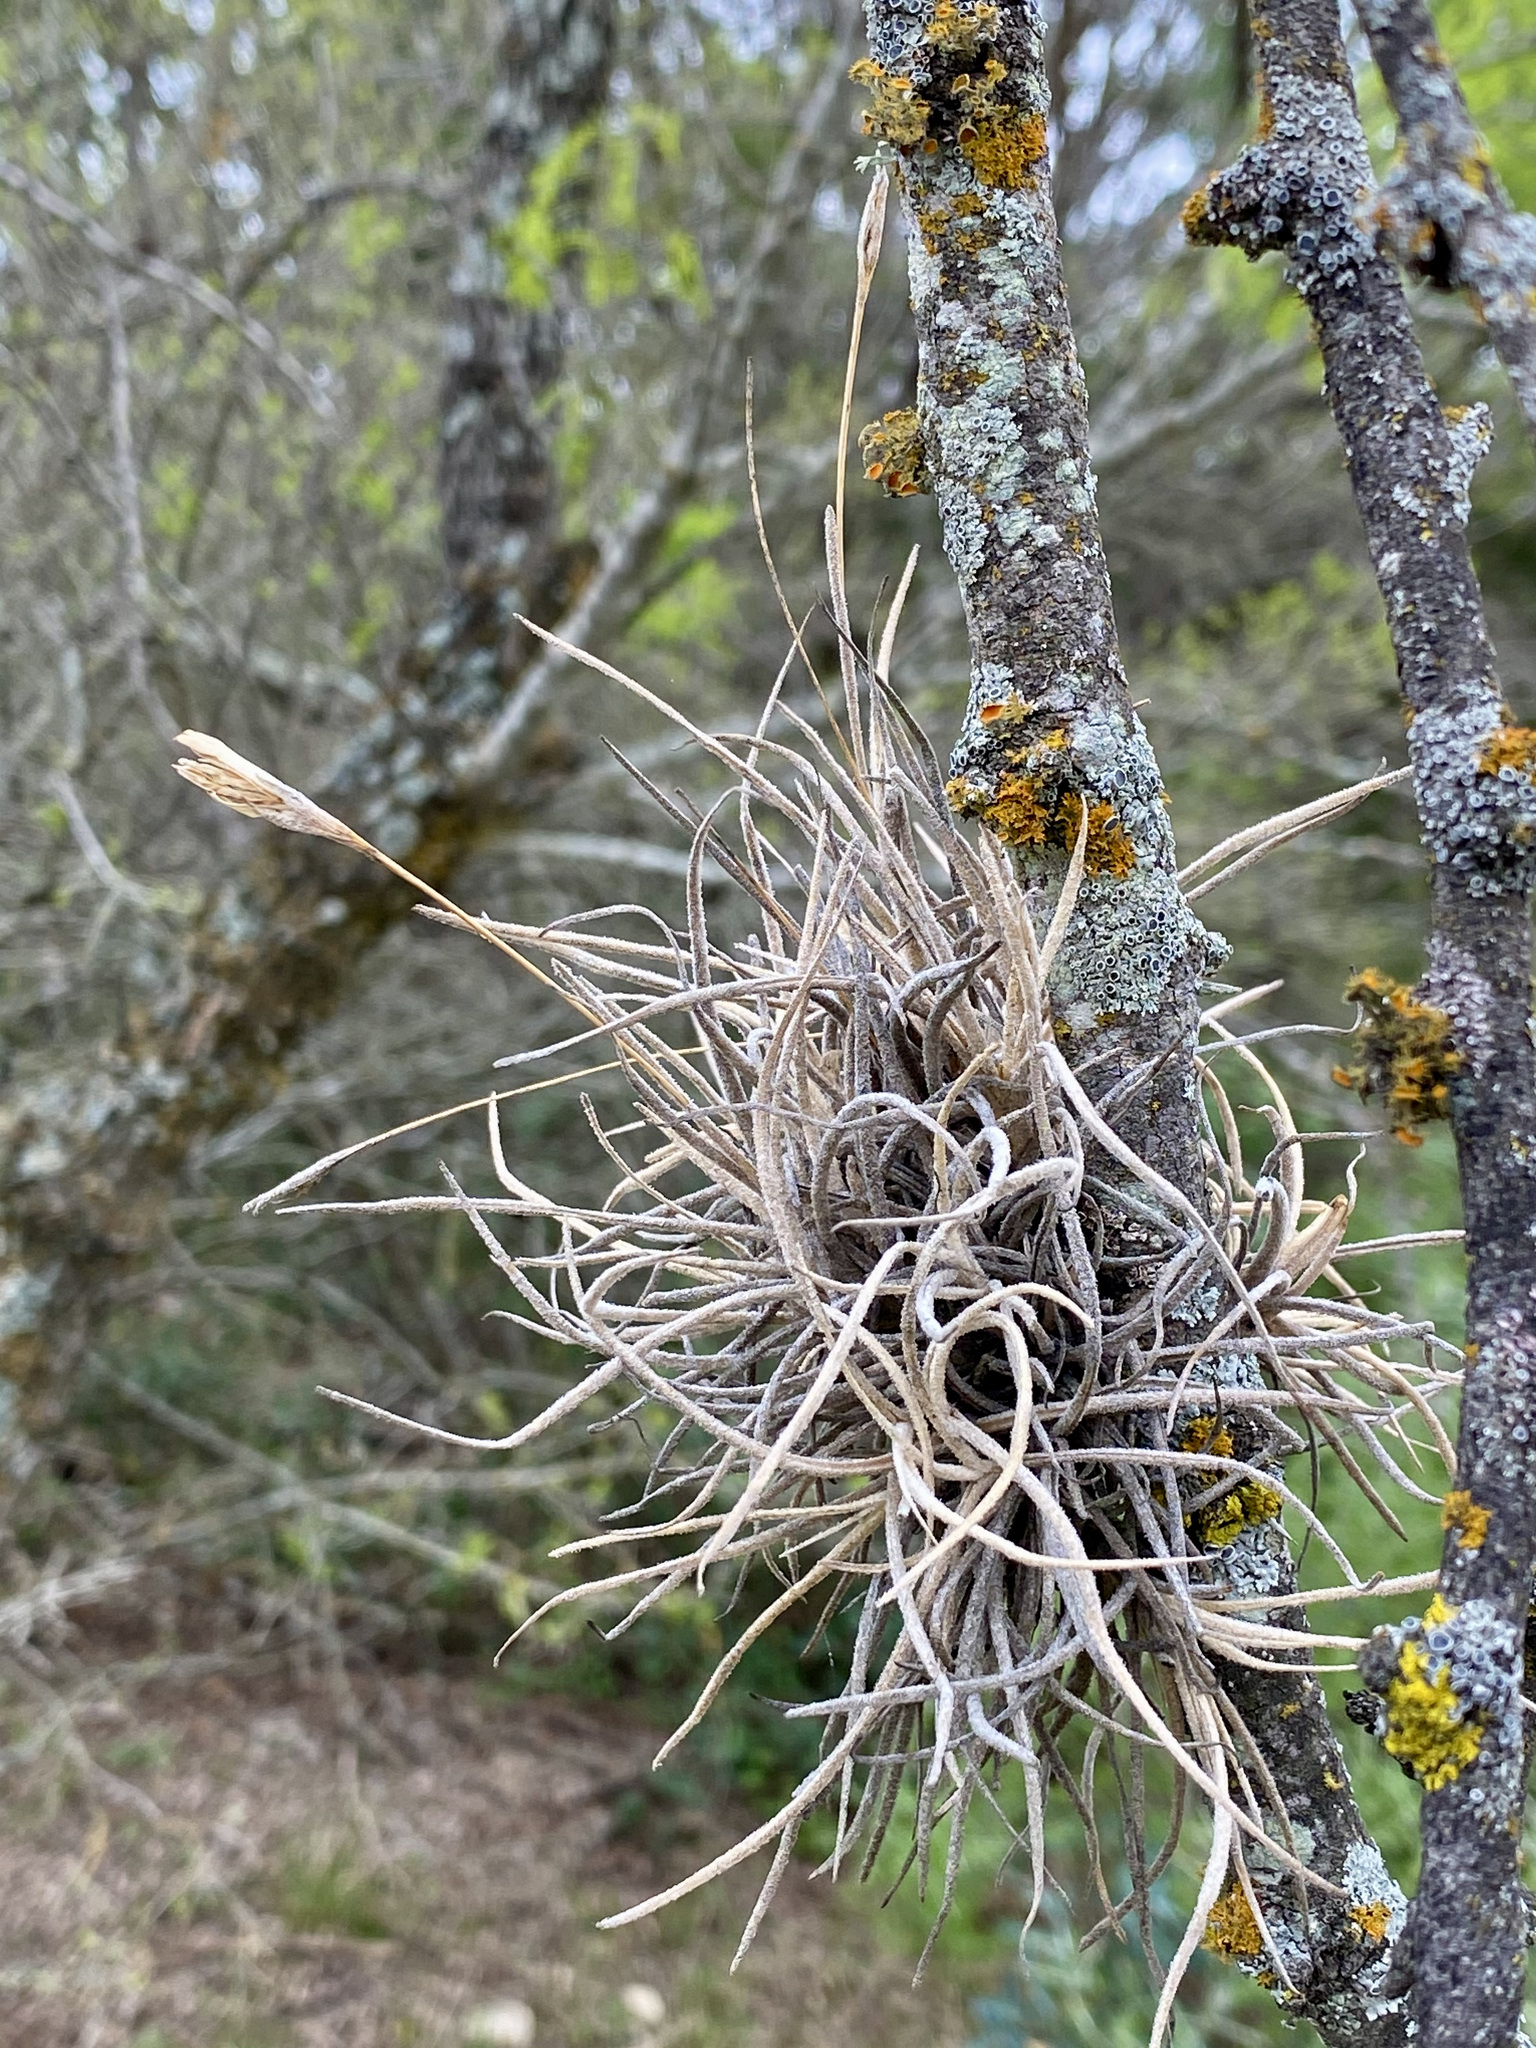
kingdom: Plantae
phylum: Tracheophyta
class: Liliopsida
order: Poales
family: Bromeliaceae
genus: Tillandsia
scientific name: Tillandsia recurvata
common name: Small ballmoss
